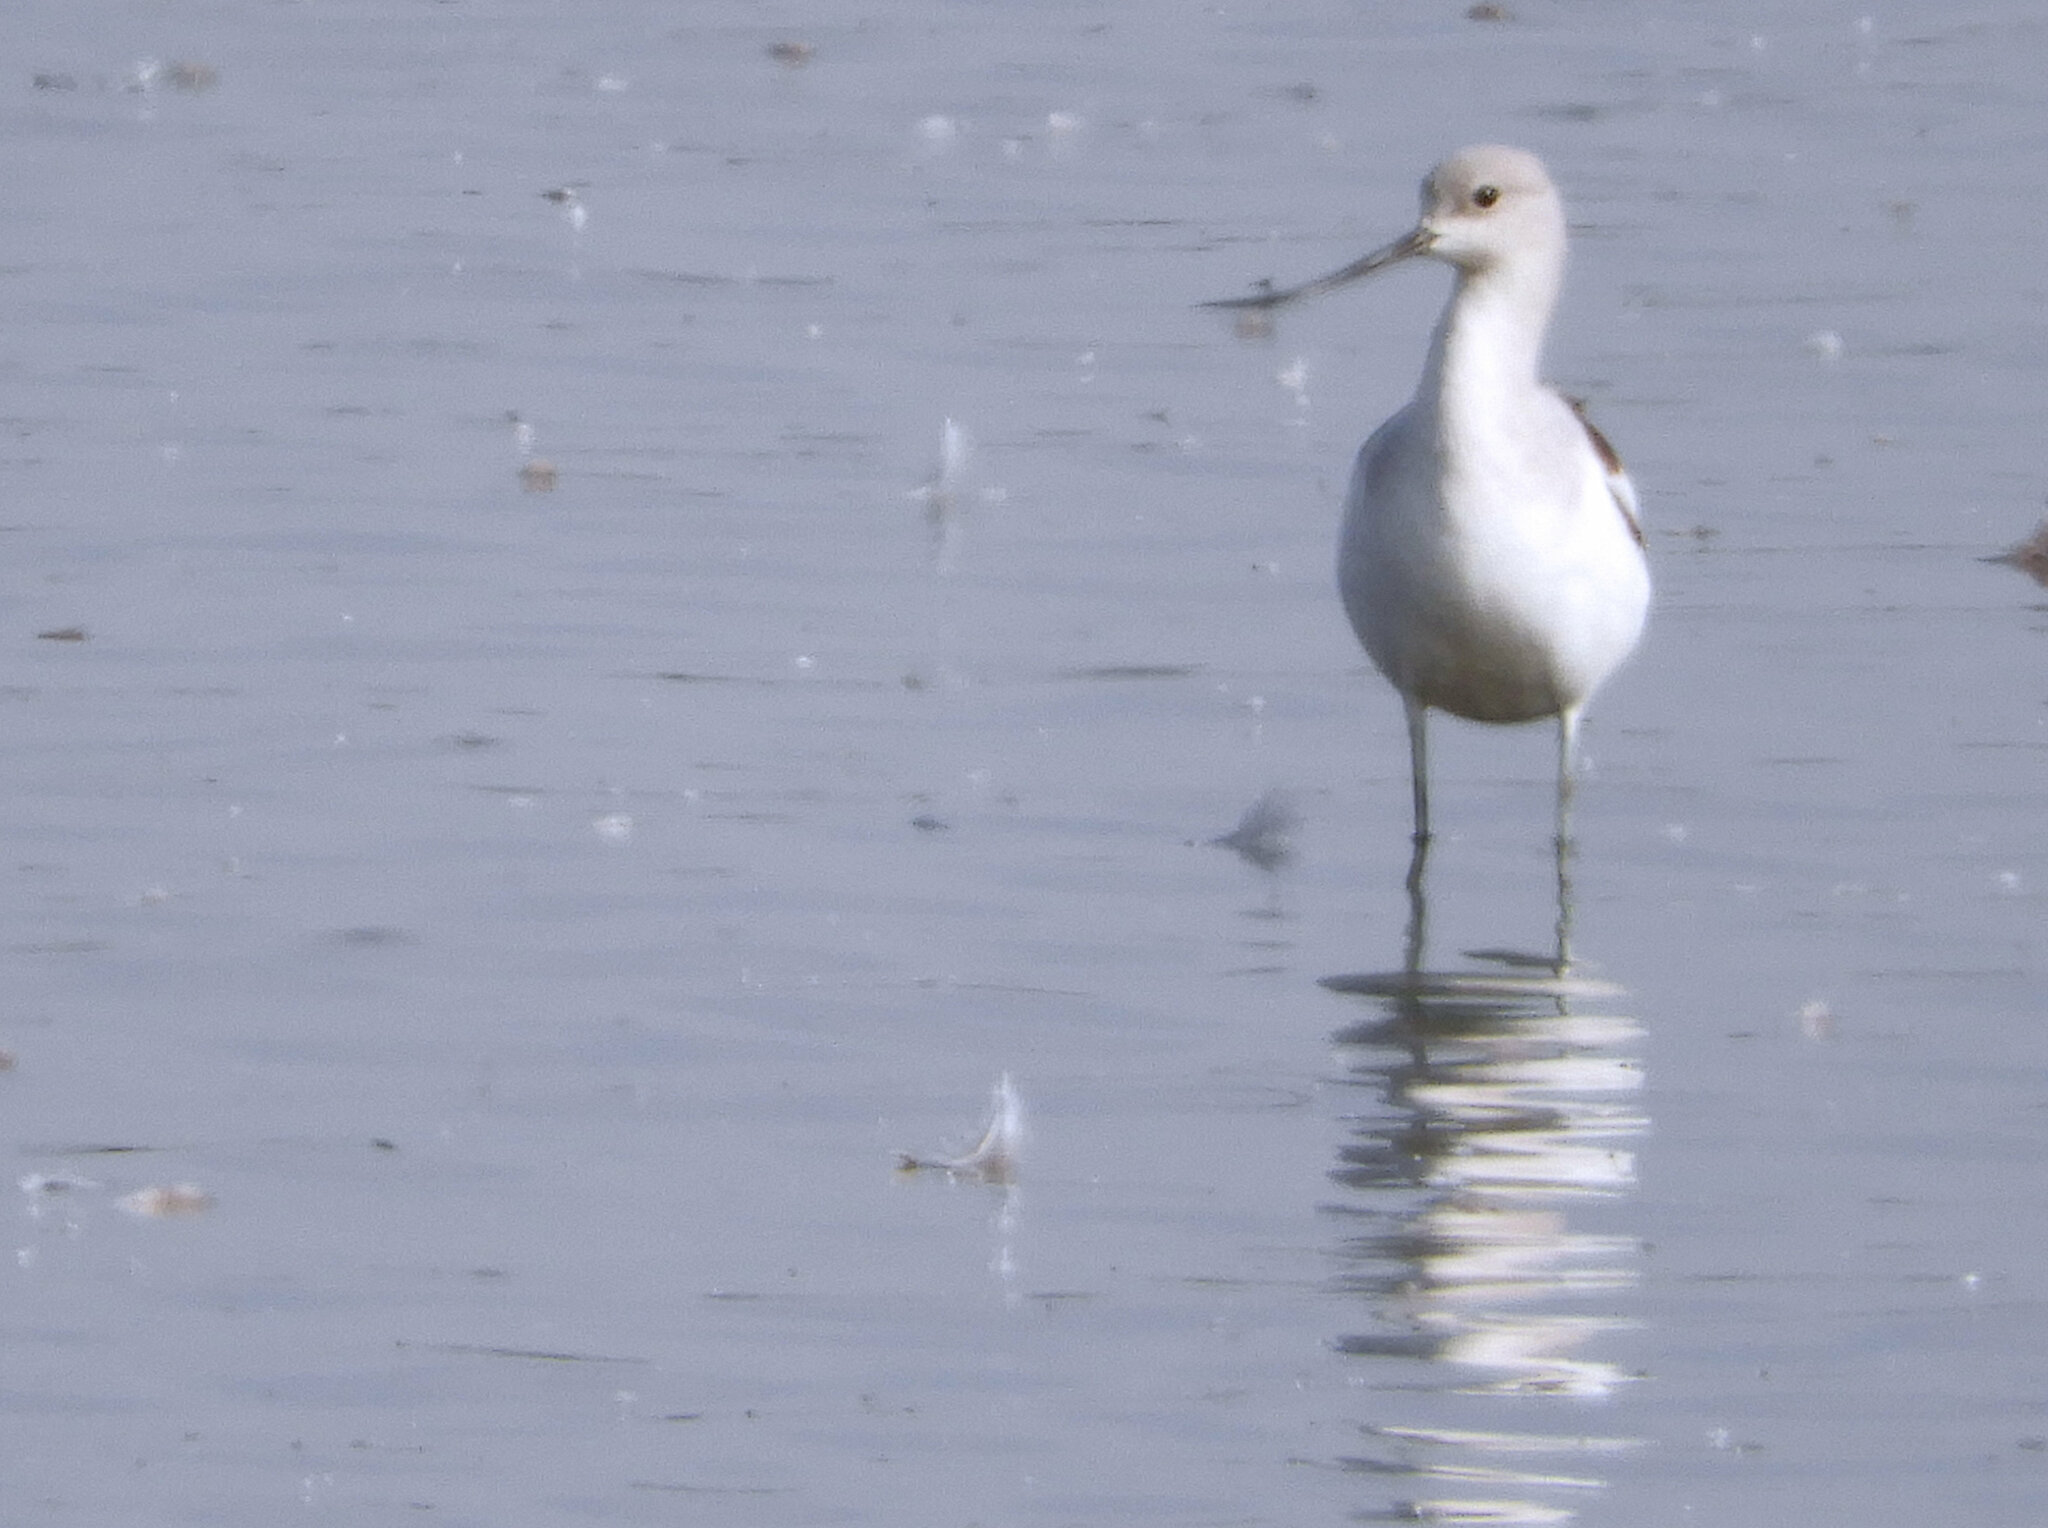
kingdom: Animalia
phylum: Chordata
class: Aves
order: Charadriiformes
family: Recurvirostridae
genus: Recurvirostra
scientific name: Recurvirostra americana
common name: American avocet
